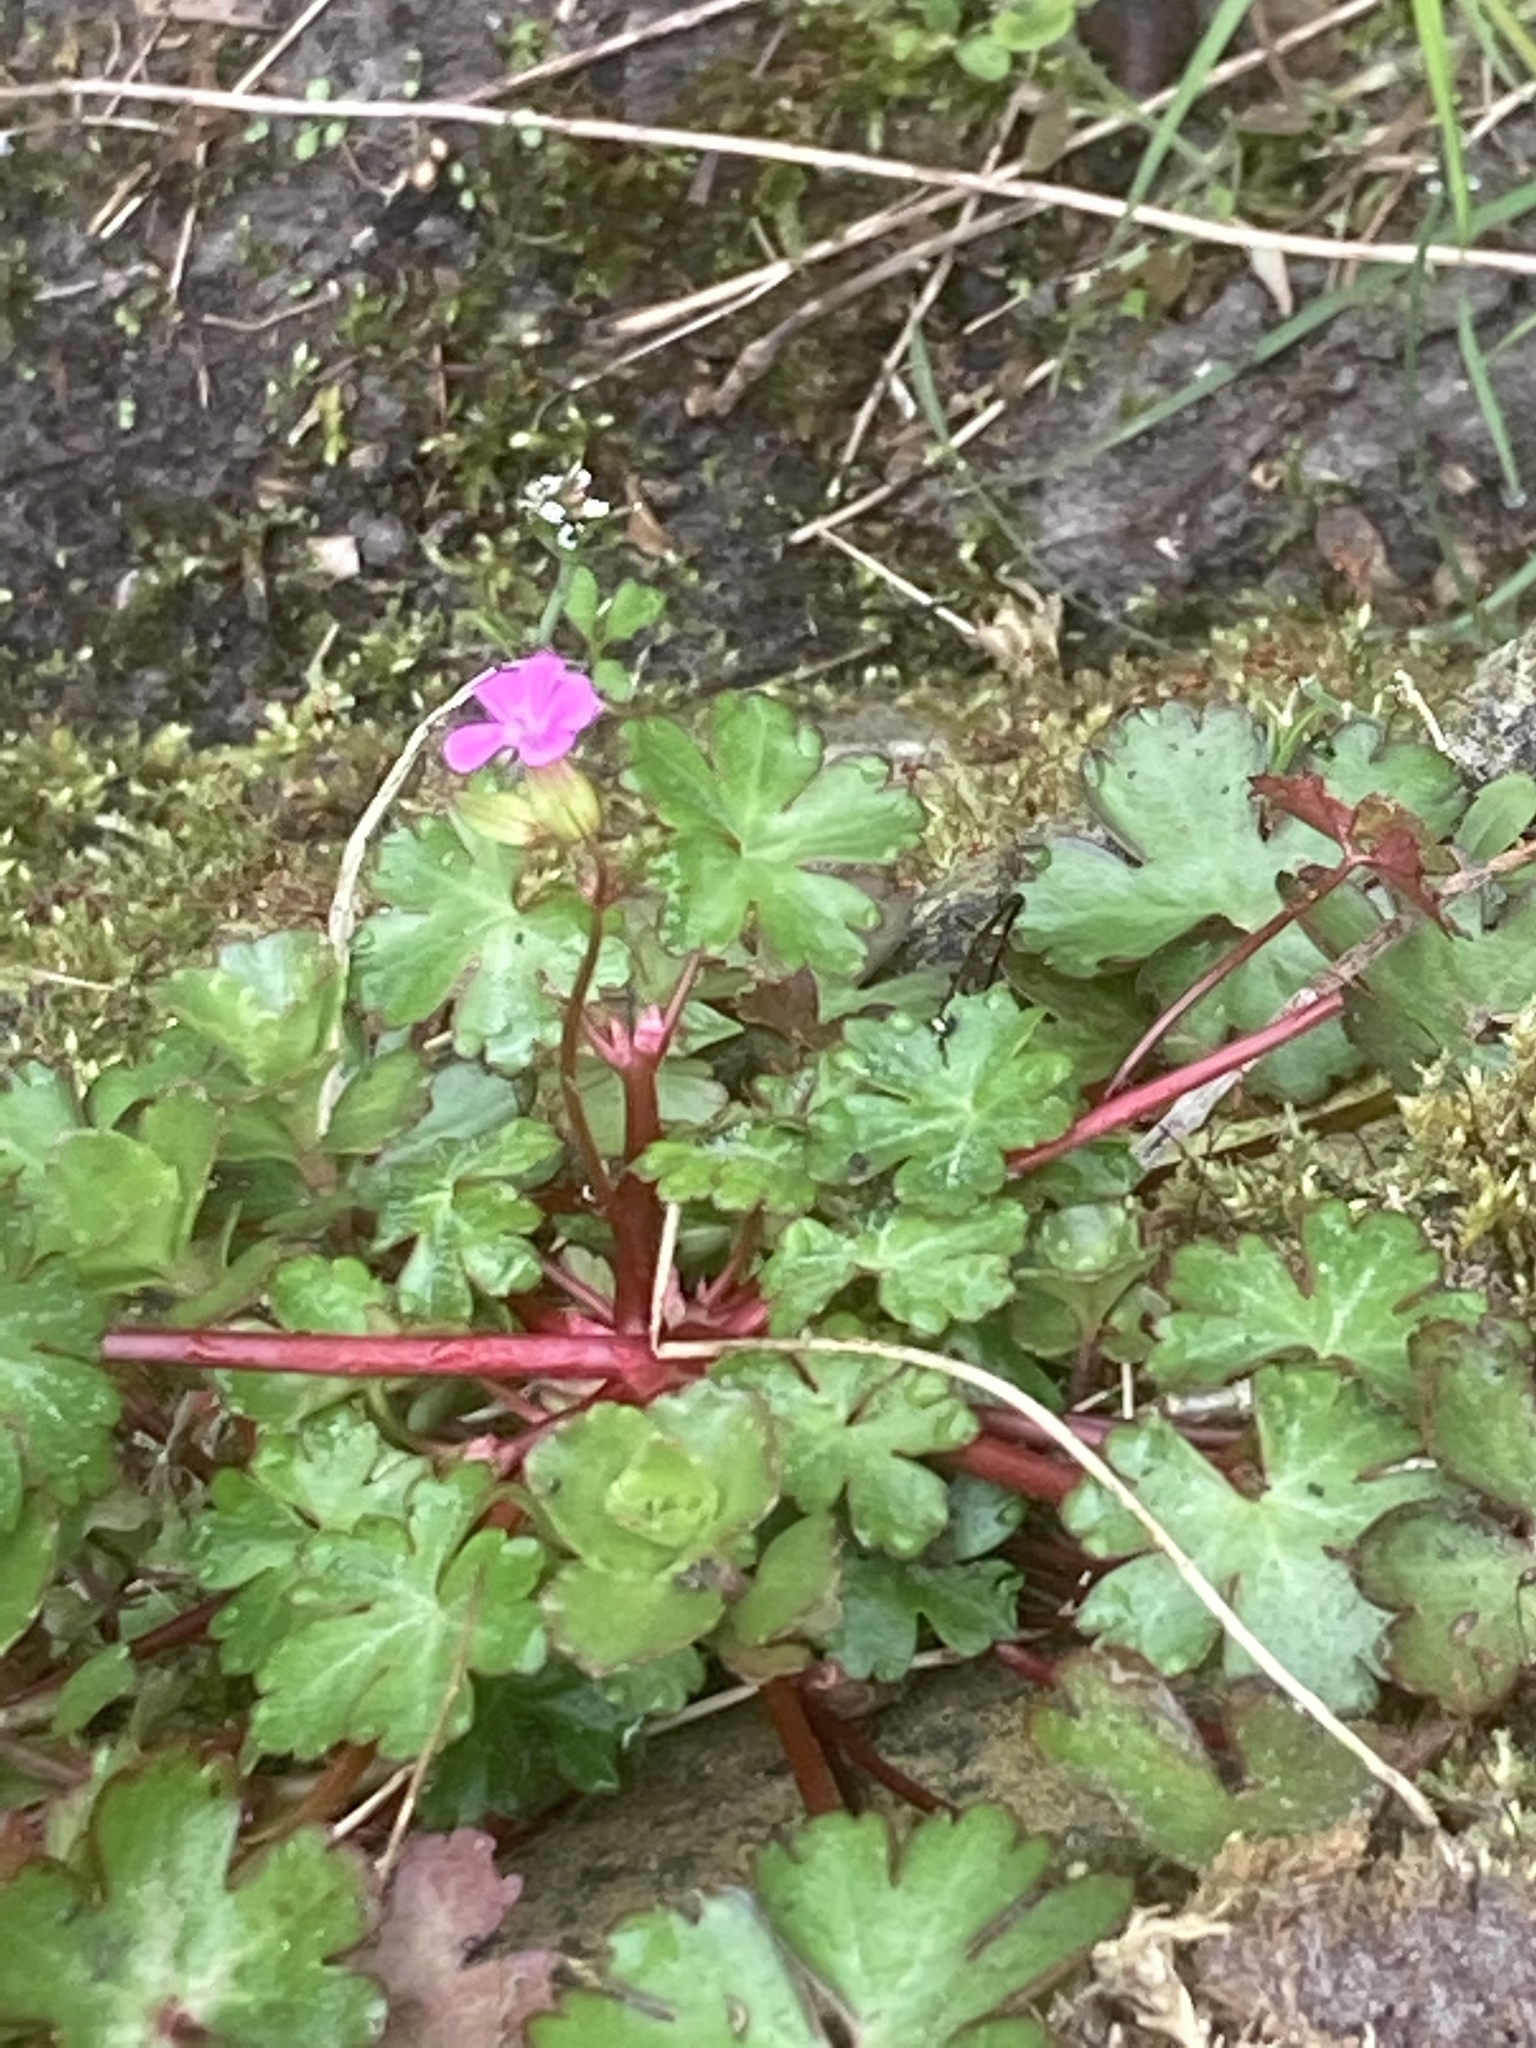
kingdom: Plantae
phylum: Tracheophyta
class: Magnoliopsida
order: Geraniales
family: Geraniaceae
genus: Geranium
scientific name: Geranium lucidum
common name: Shining crane's-bill
